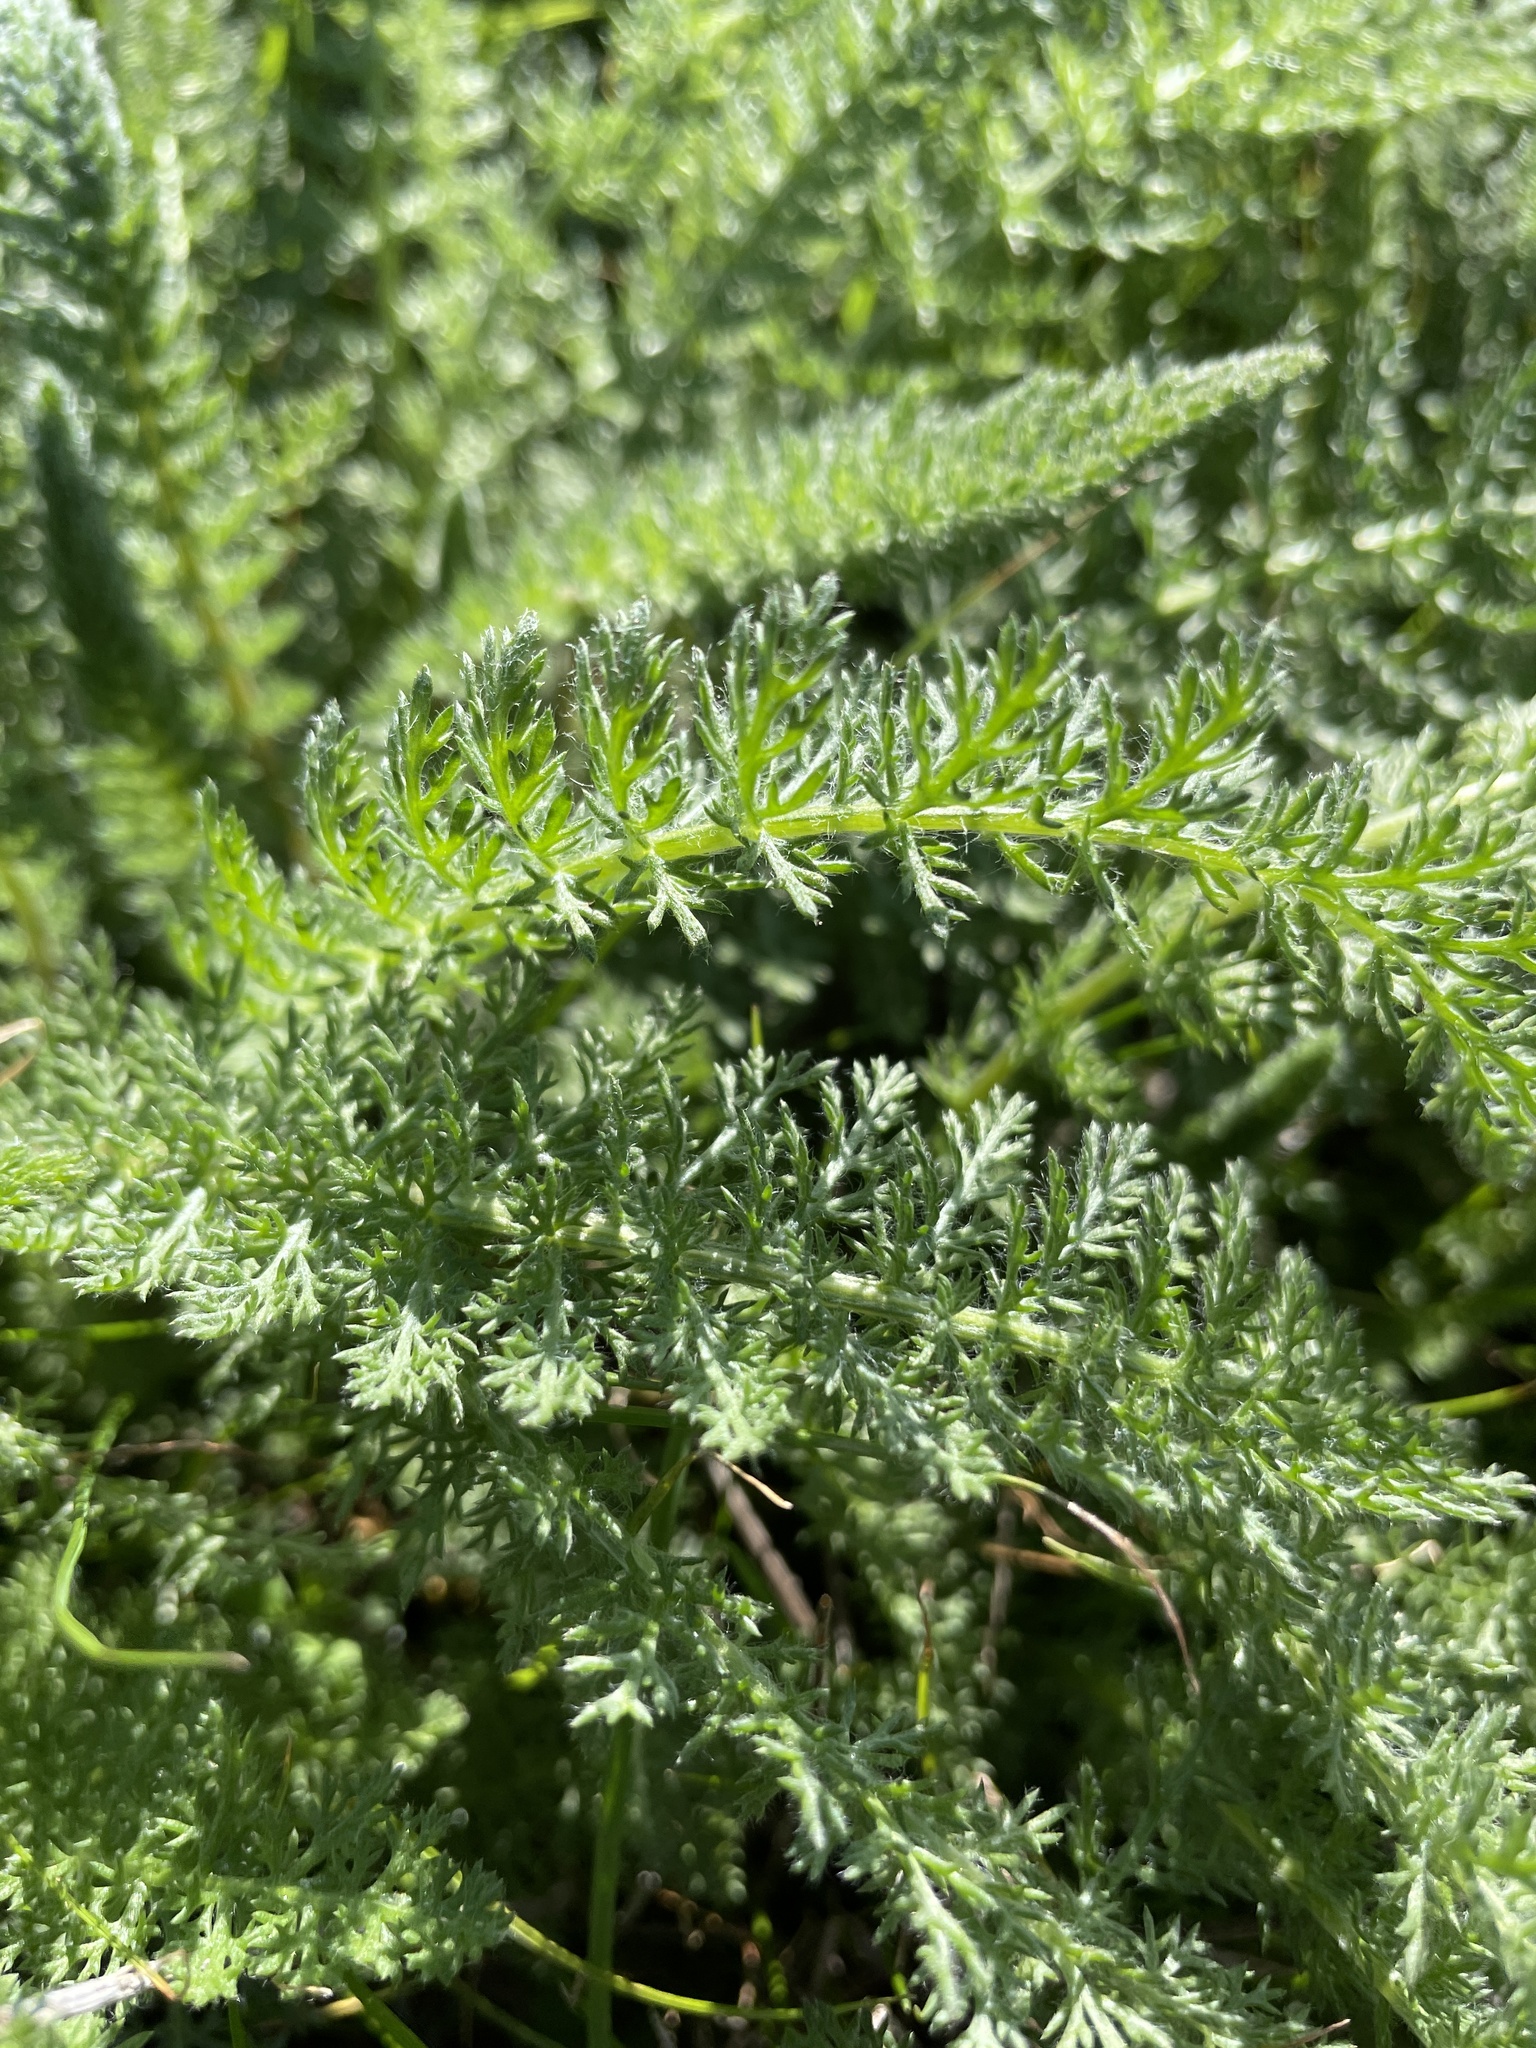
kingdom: Plantae
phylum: Tracheophyta
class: Magnoliopsida
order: Asterales
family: Asteraceae
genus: Achillea
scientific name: Achillea millefolium
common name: Yarrow
